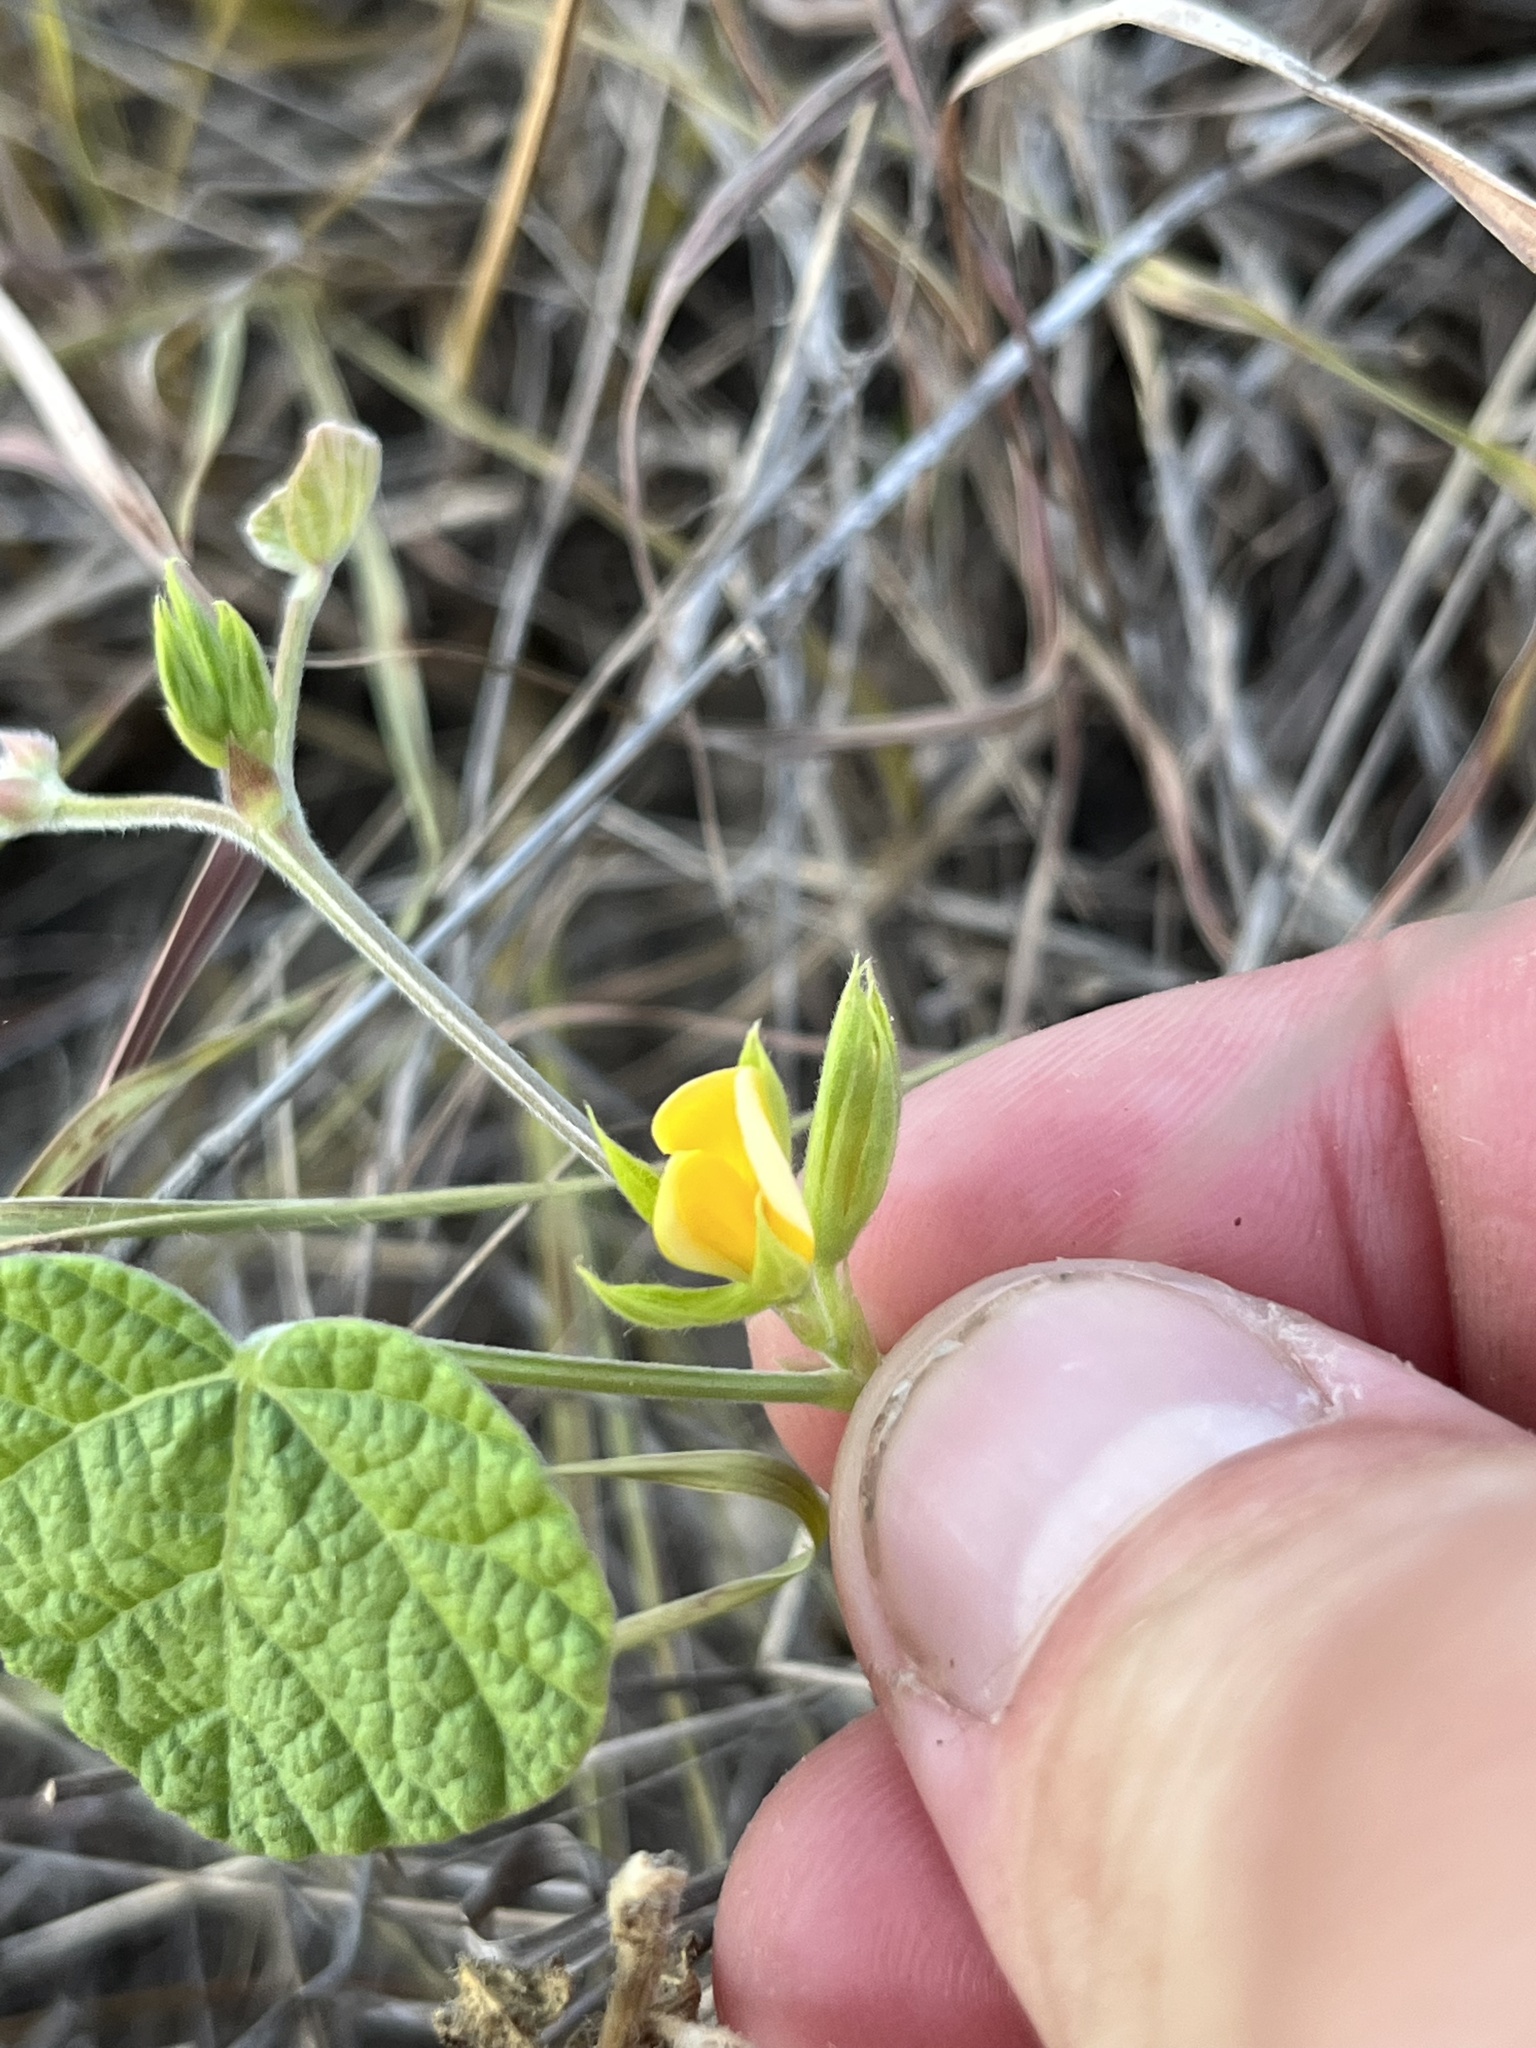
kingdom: Plantae
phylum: Tracheophyta
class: Magnoliopsida
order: Fabales
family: Fabaceae
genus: Rhynchosia
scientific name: Rhynchosia americana
